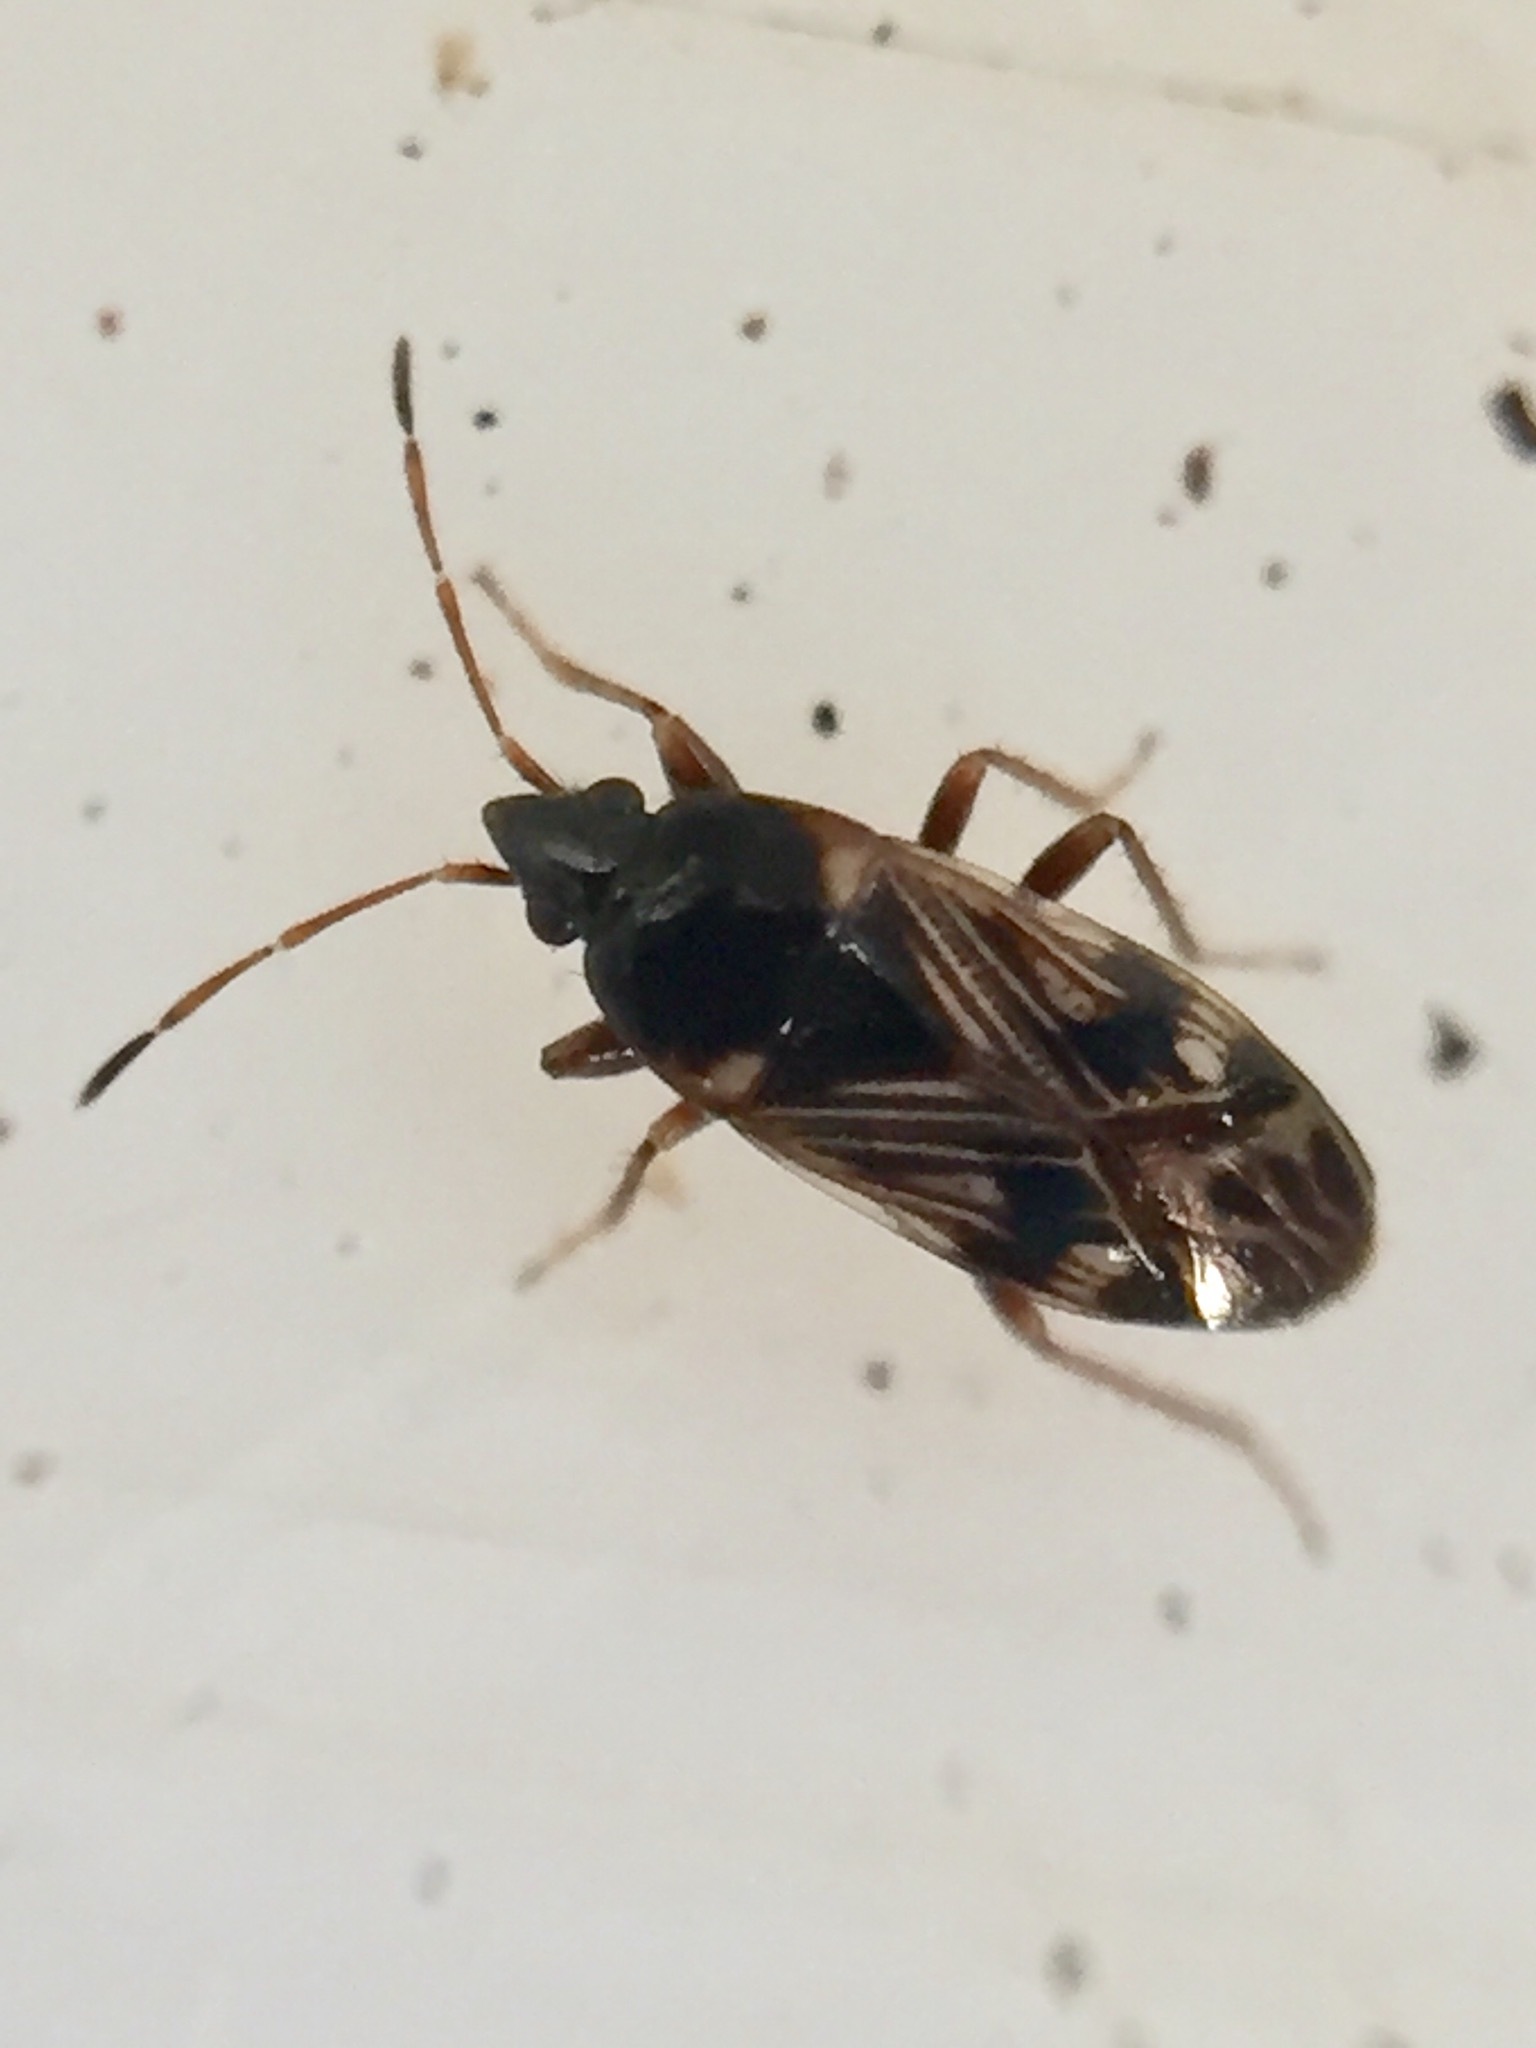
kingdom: Animalia
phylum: Arthropoda
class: Insecta
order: Hemiptera
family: Rhyparochromidae
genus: Paramyocara
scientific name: Paramyocara iridescens
